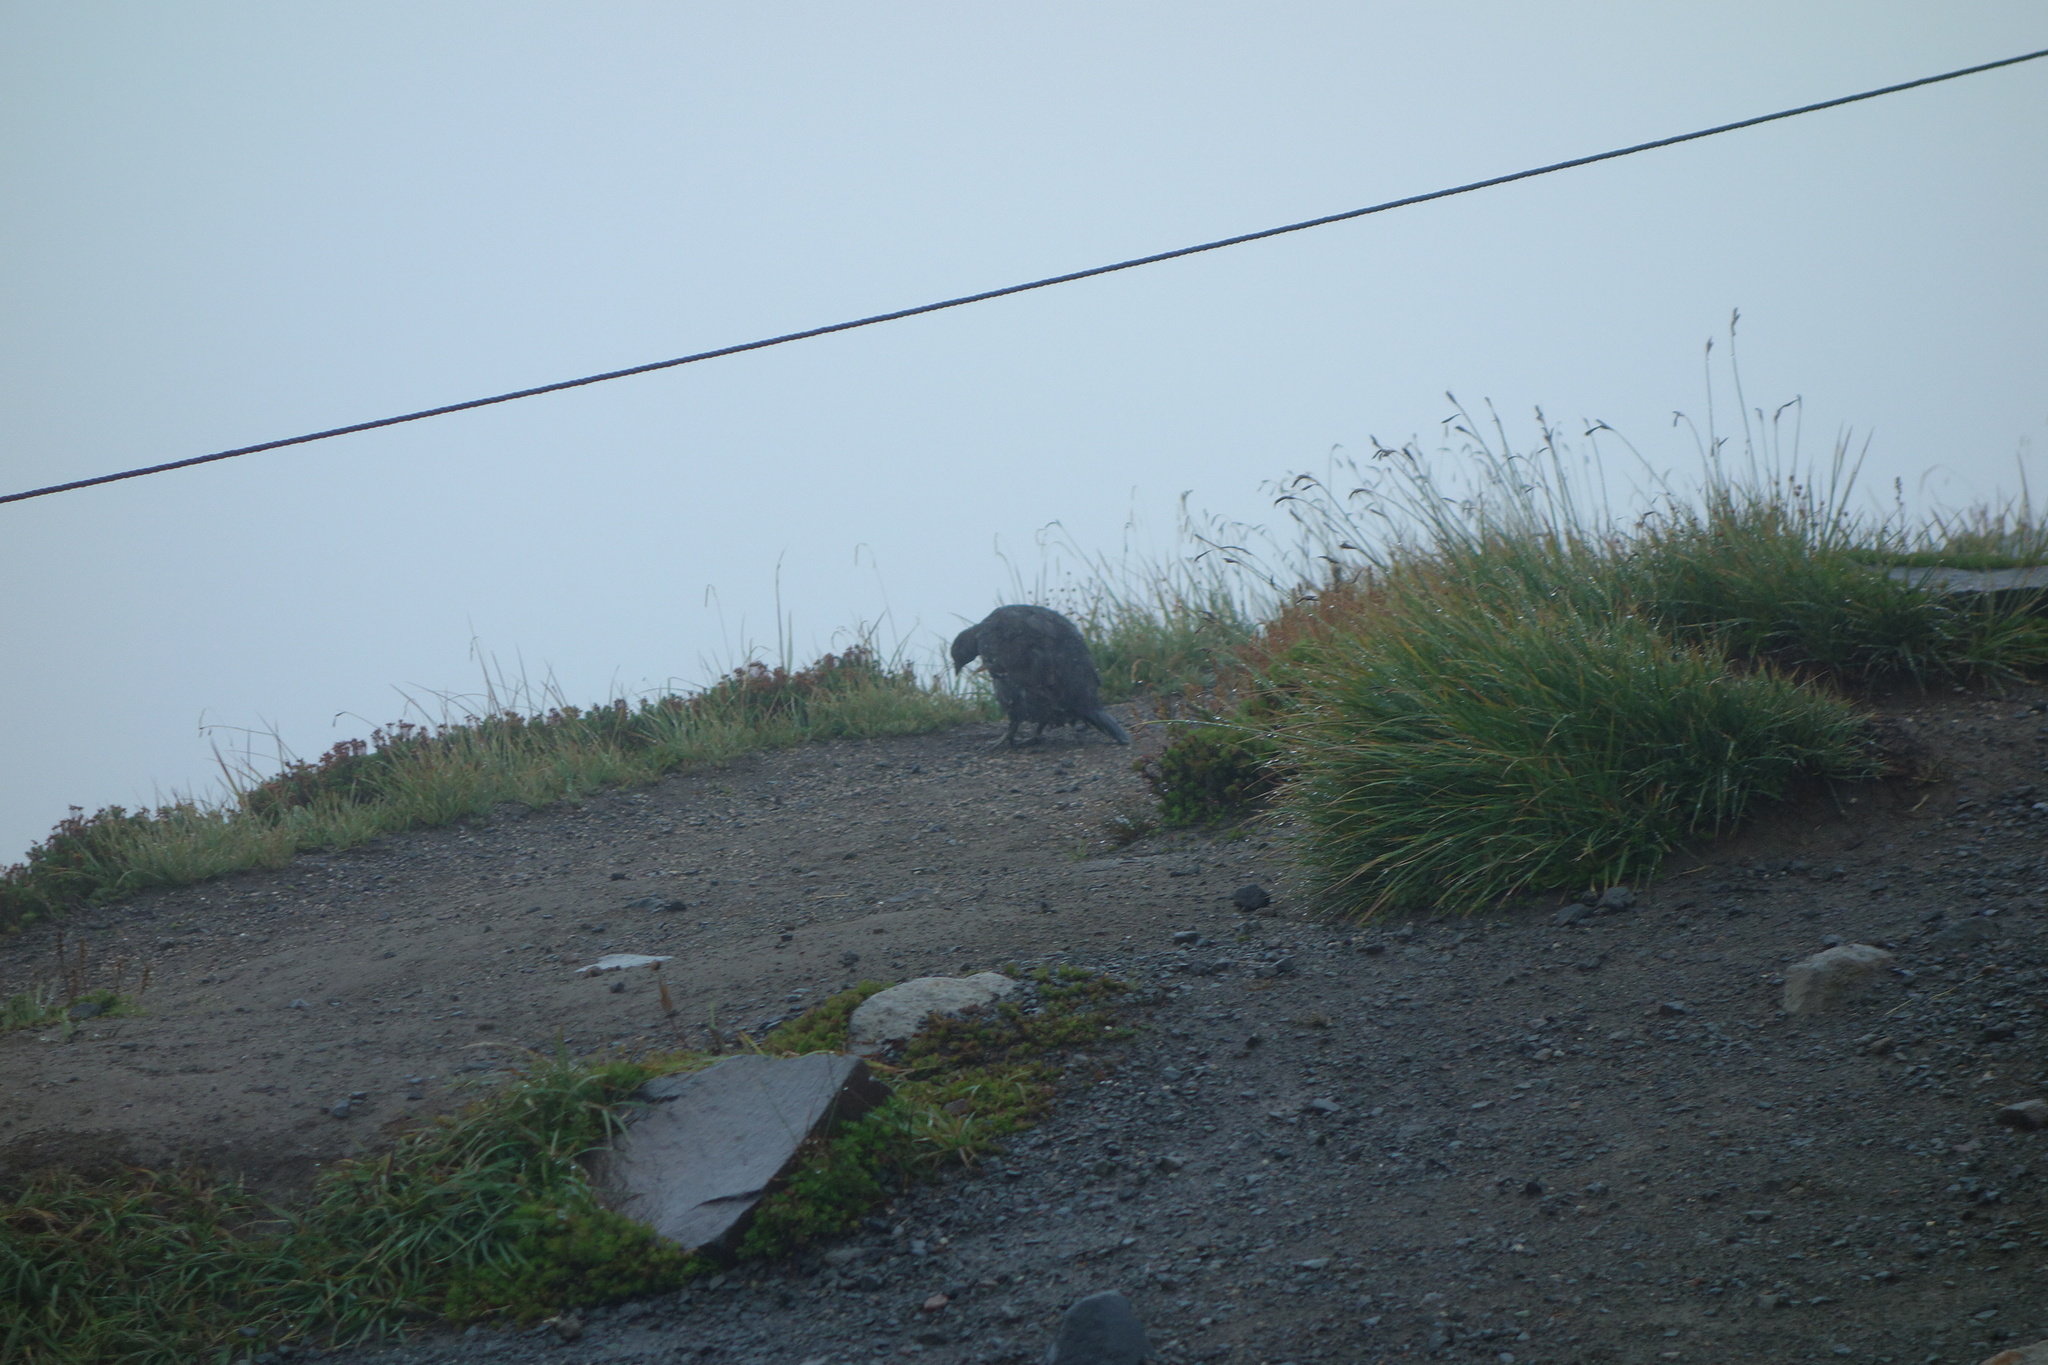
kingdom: Animalia
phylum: Chordata
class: Aves
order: Galliformes
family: Phasianidae
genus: Dendragapus
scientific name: Dendragapus fuliginosus
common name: Sooty grouse
